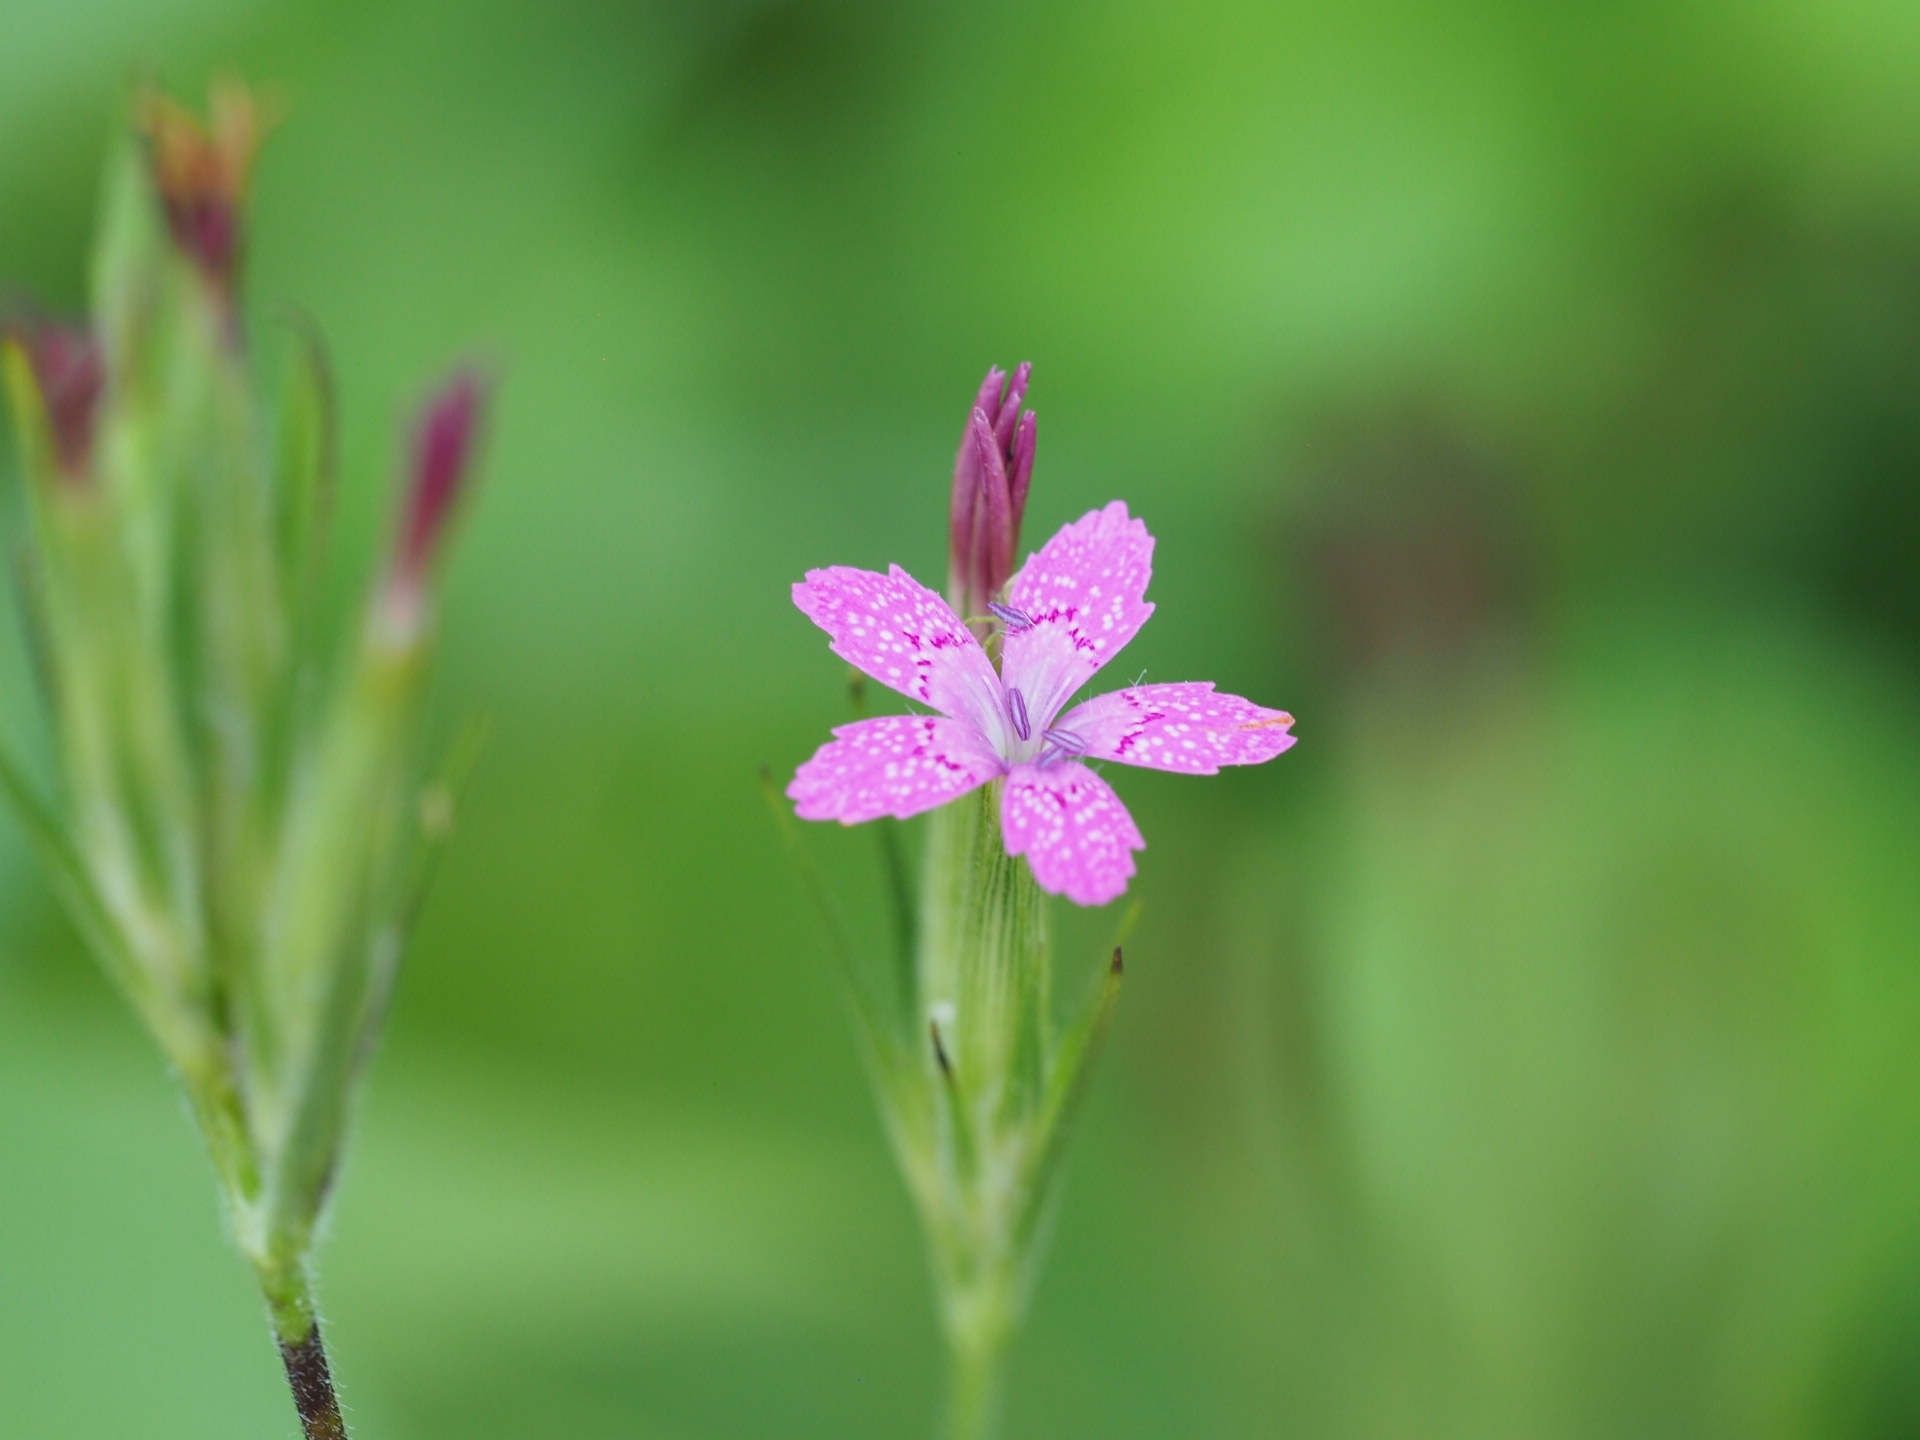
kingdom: Plantae
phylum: Tracheophyta
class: Magnoliopsida
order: Caryophyllales
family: Caryophyllaceae
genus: Dianthus
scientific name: Dianthus armeria
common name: Deptford pink
